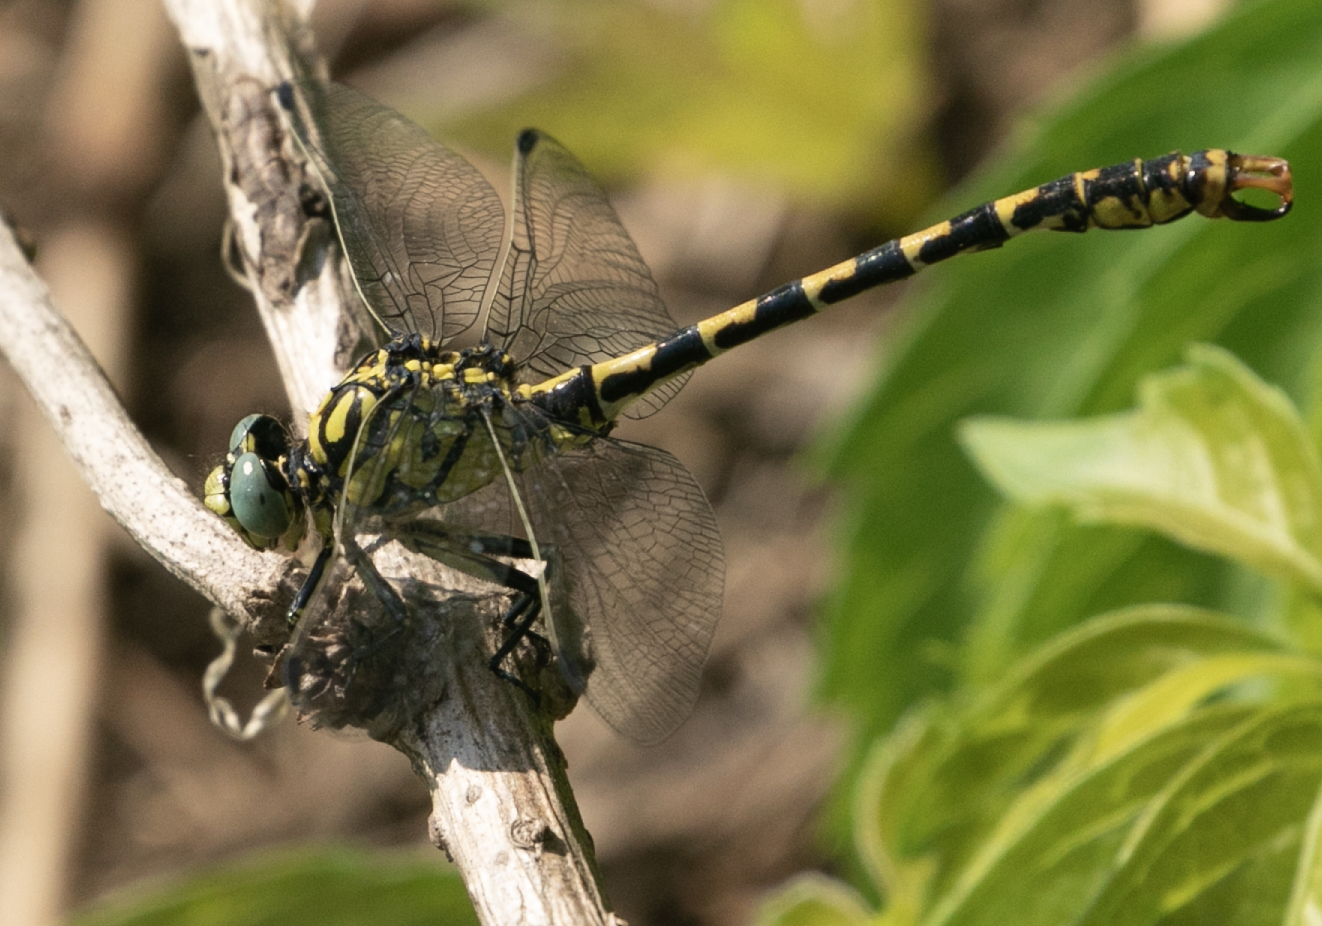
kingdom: Animalia
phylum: Arthropoda
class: Insecta
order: Odonata
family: Gomphidae
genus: Onychogomphus
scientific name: Onychogomphus forcipatus
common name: Small pincertail
